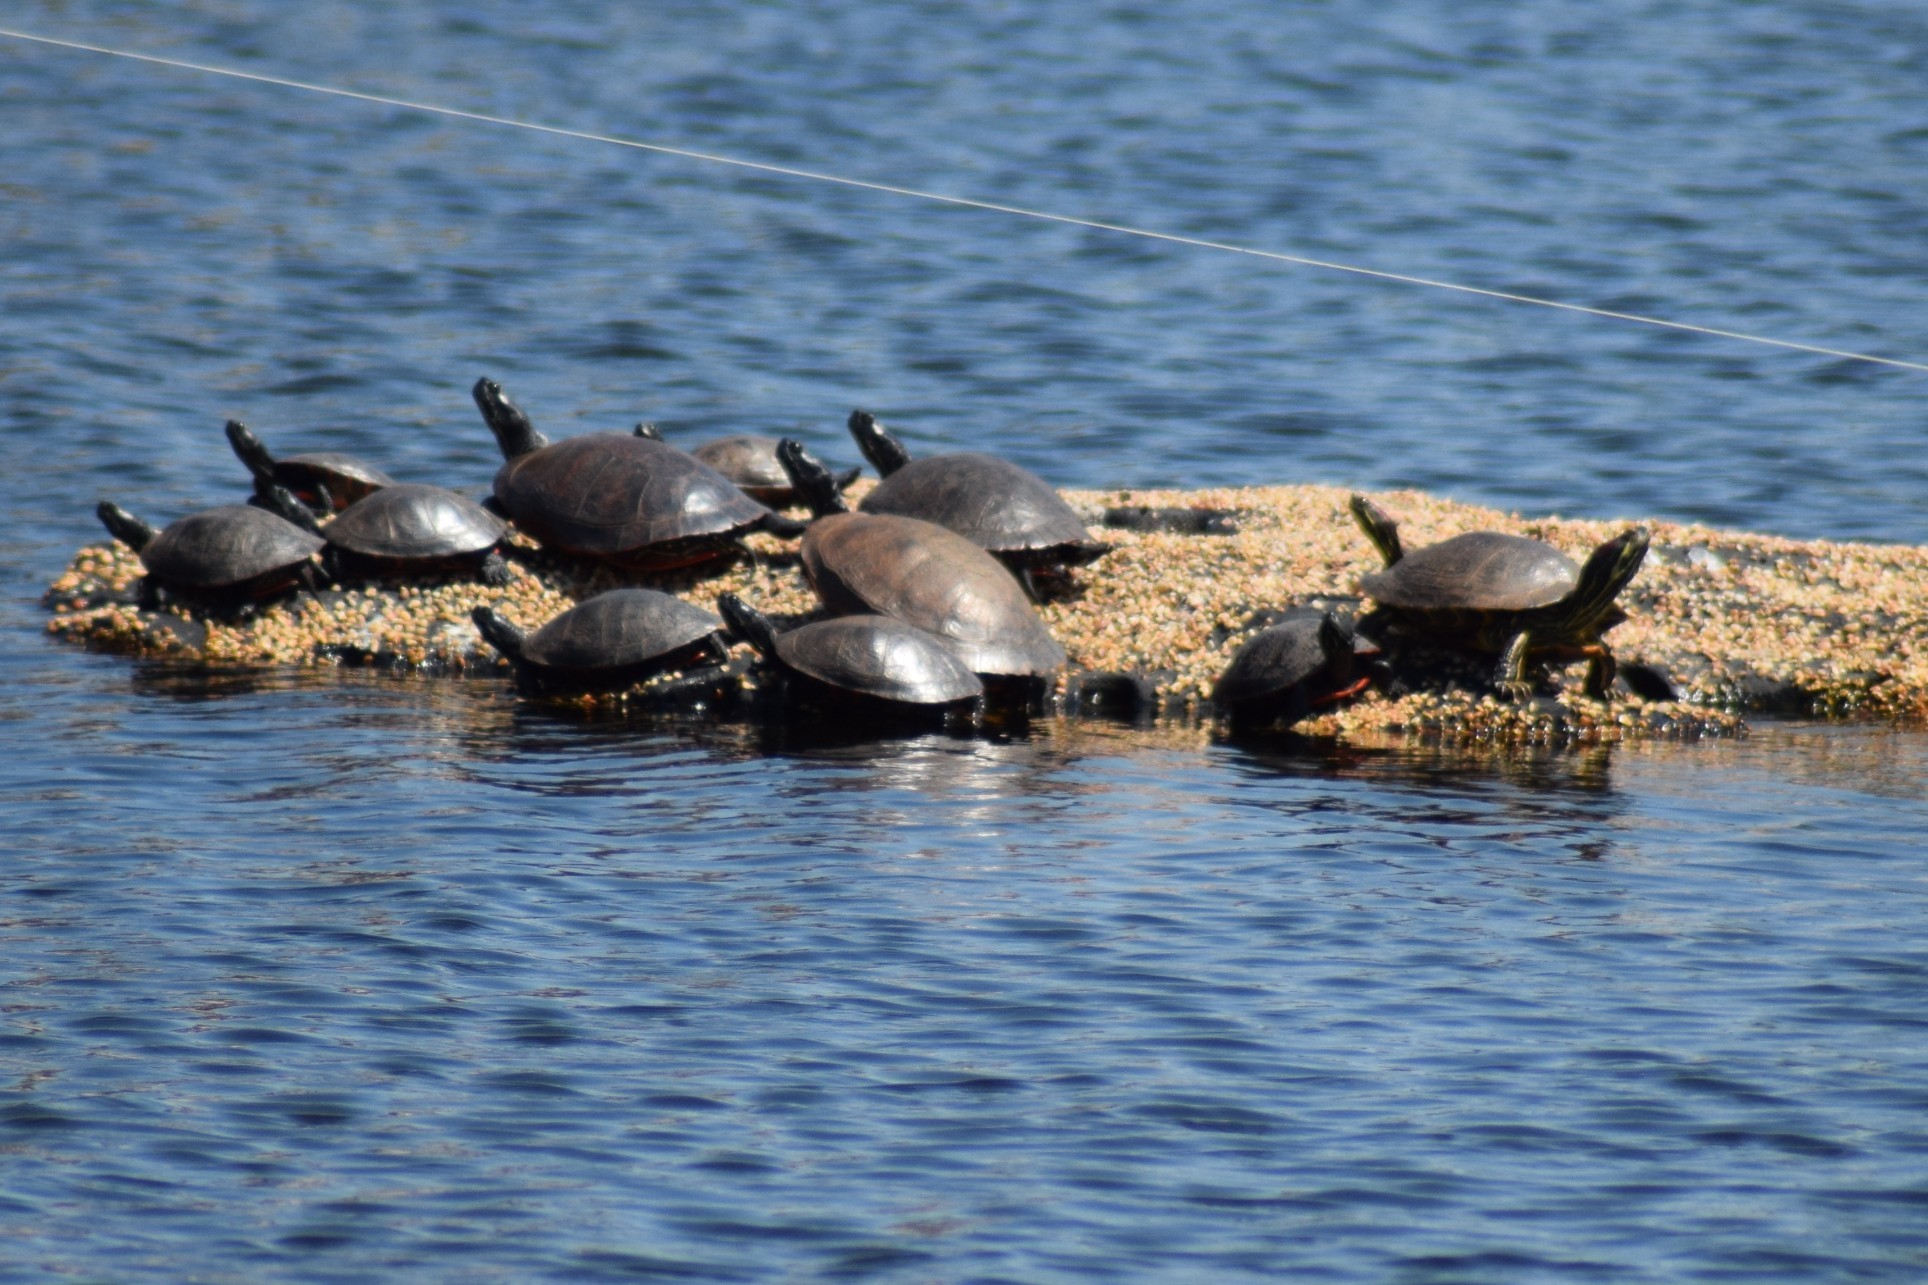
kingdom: Animalia
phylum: Chordata
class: Testudines
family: Emydidae
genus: Pseudemys
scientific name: Pseudemys rubriventris
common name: American red-bellied turtle
